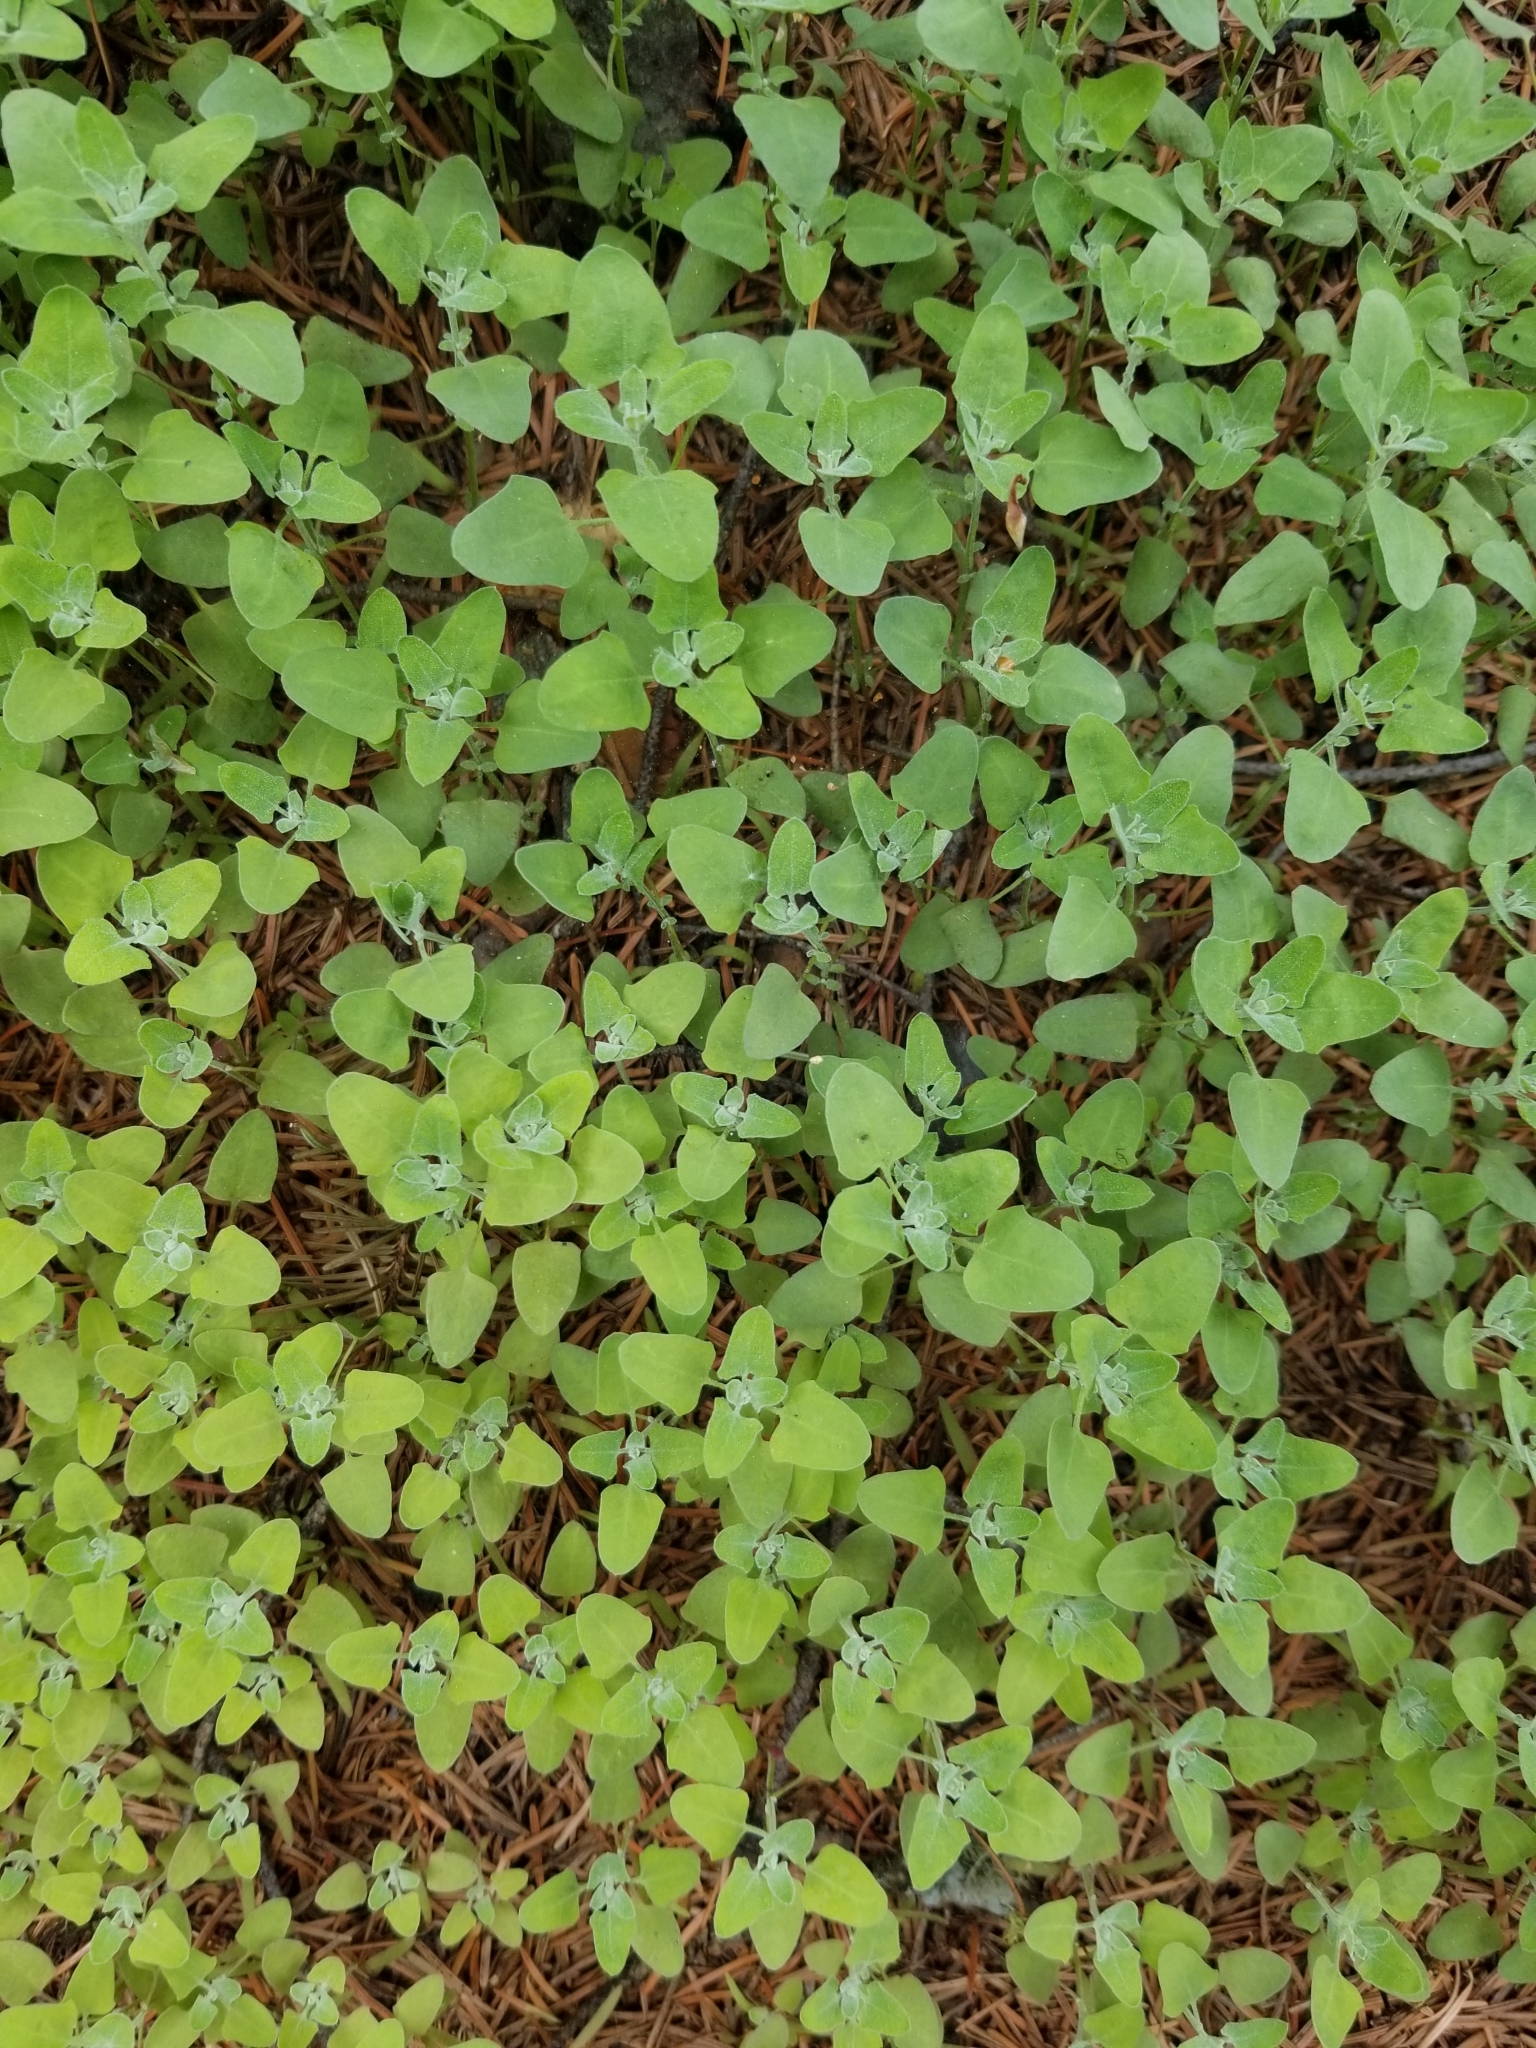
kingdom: Plantae
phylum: Tracheophyta
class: Magnoliopsida
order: Caryophyllales
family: Amaranthaceae
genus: Chenopodium
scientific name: Chenopodium album
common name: Fat-hen
